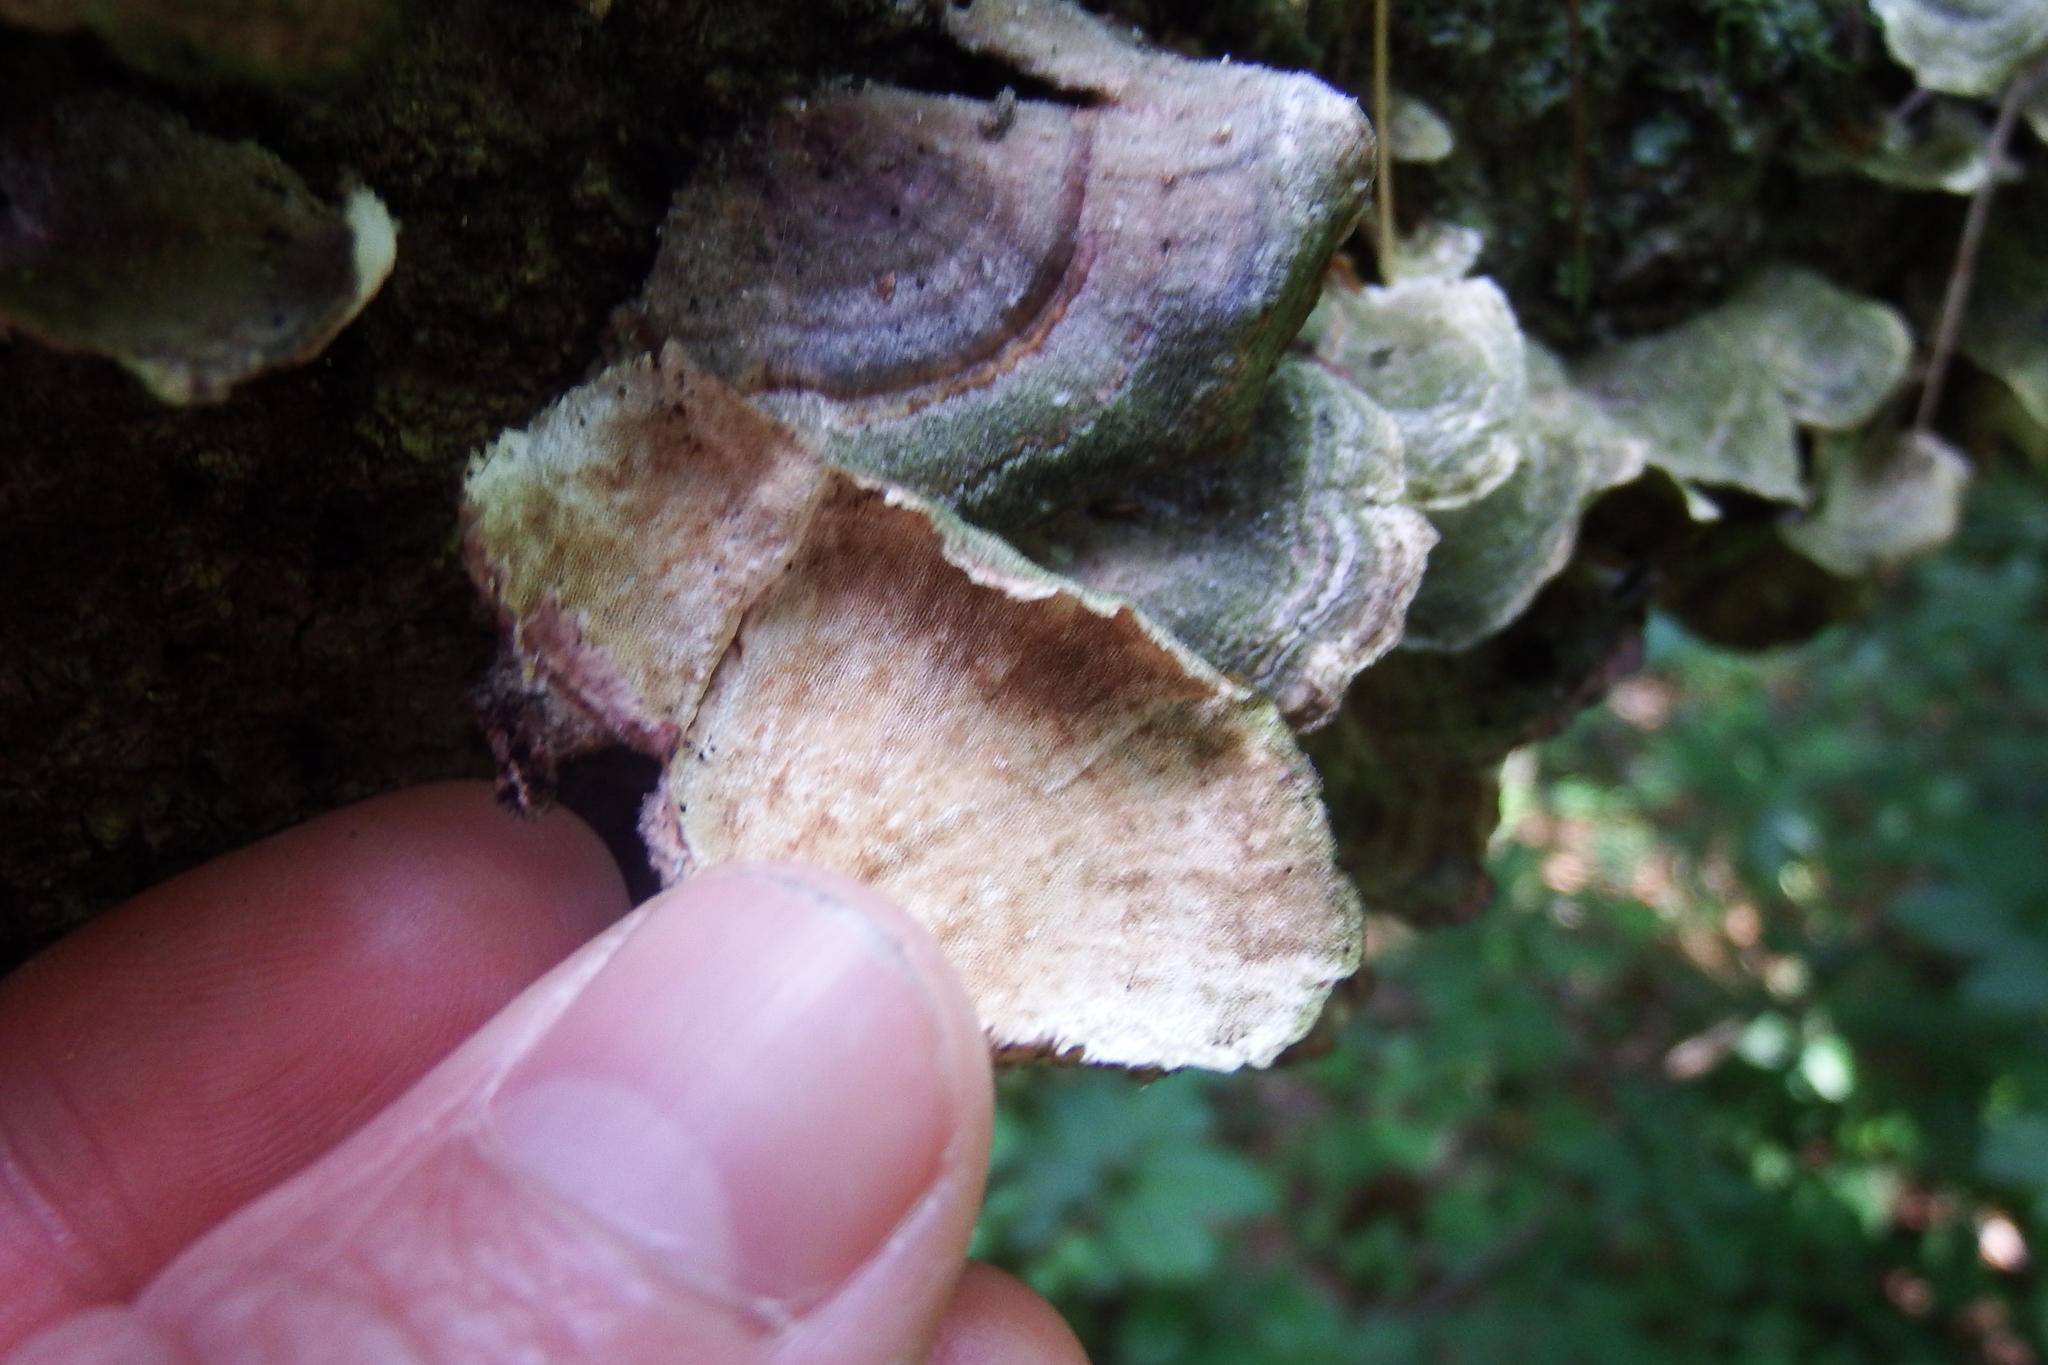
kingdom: Fungi
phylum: Basidiomycota
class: Agaricomycetes
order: Hymenochaetales
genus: Trichaptum
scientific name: Trichaptum biforme
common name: Violet-toothed polypore
